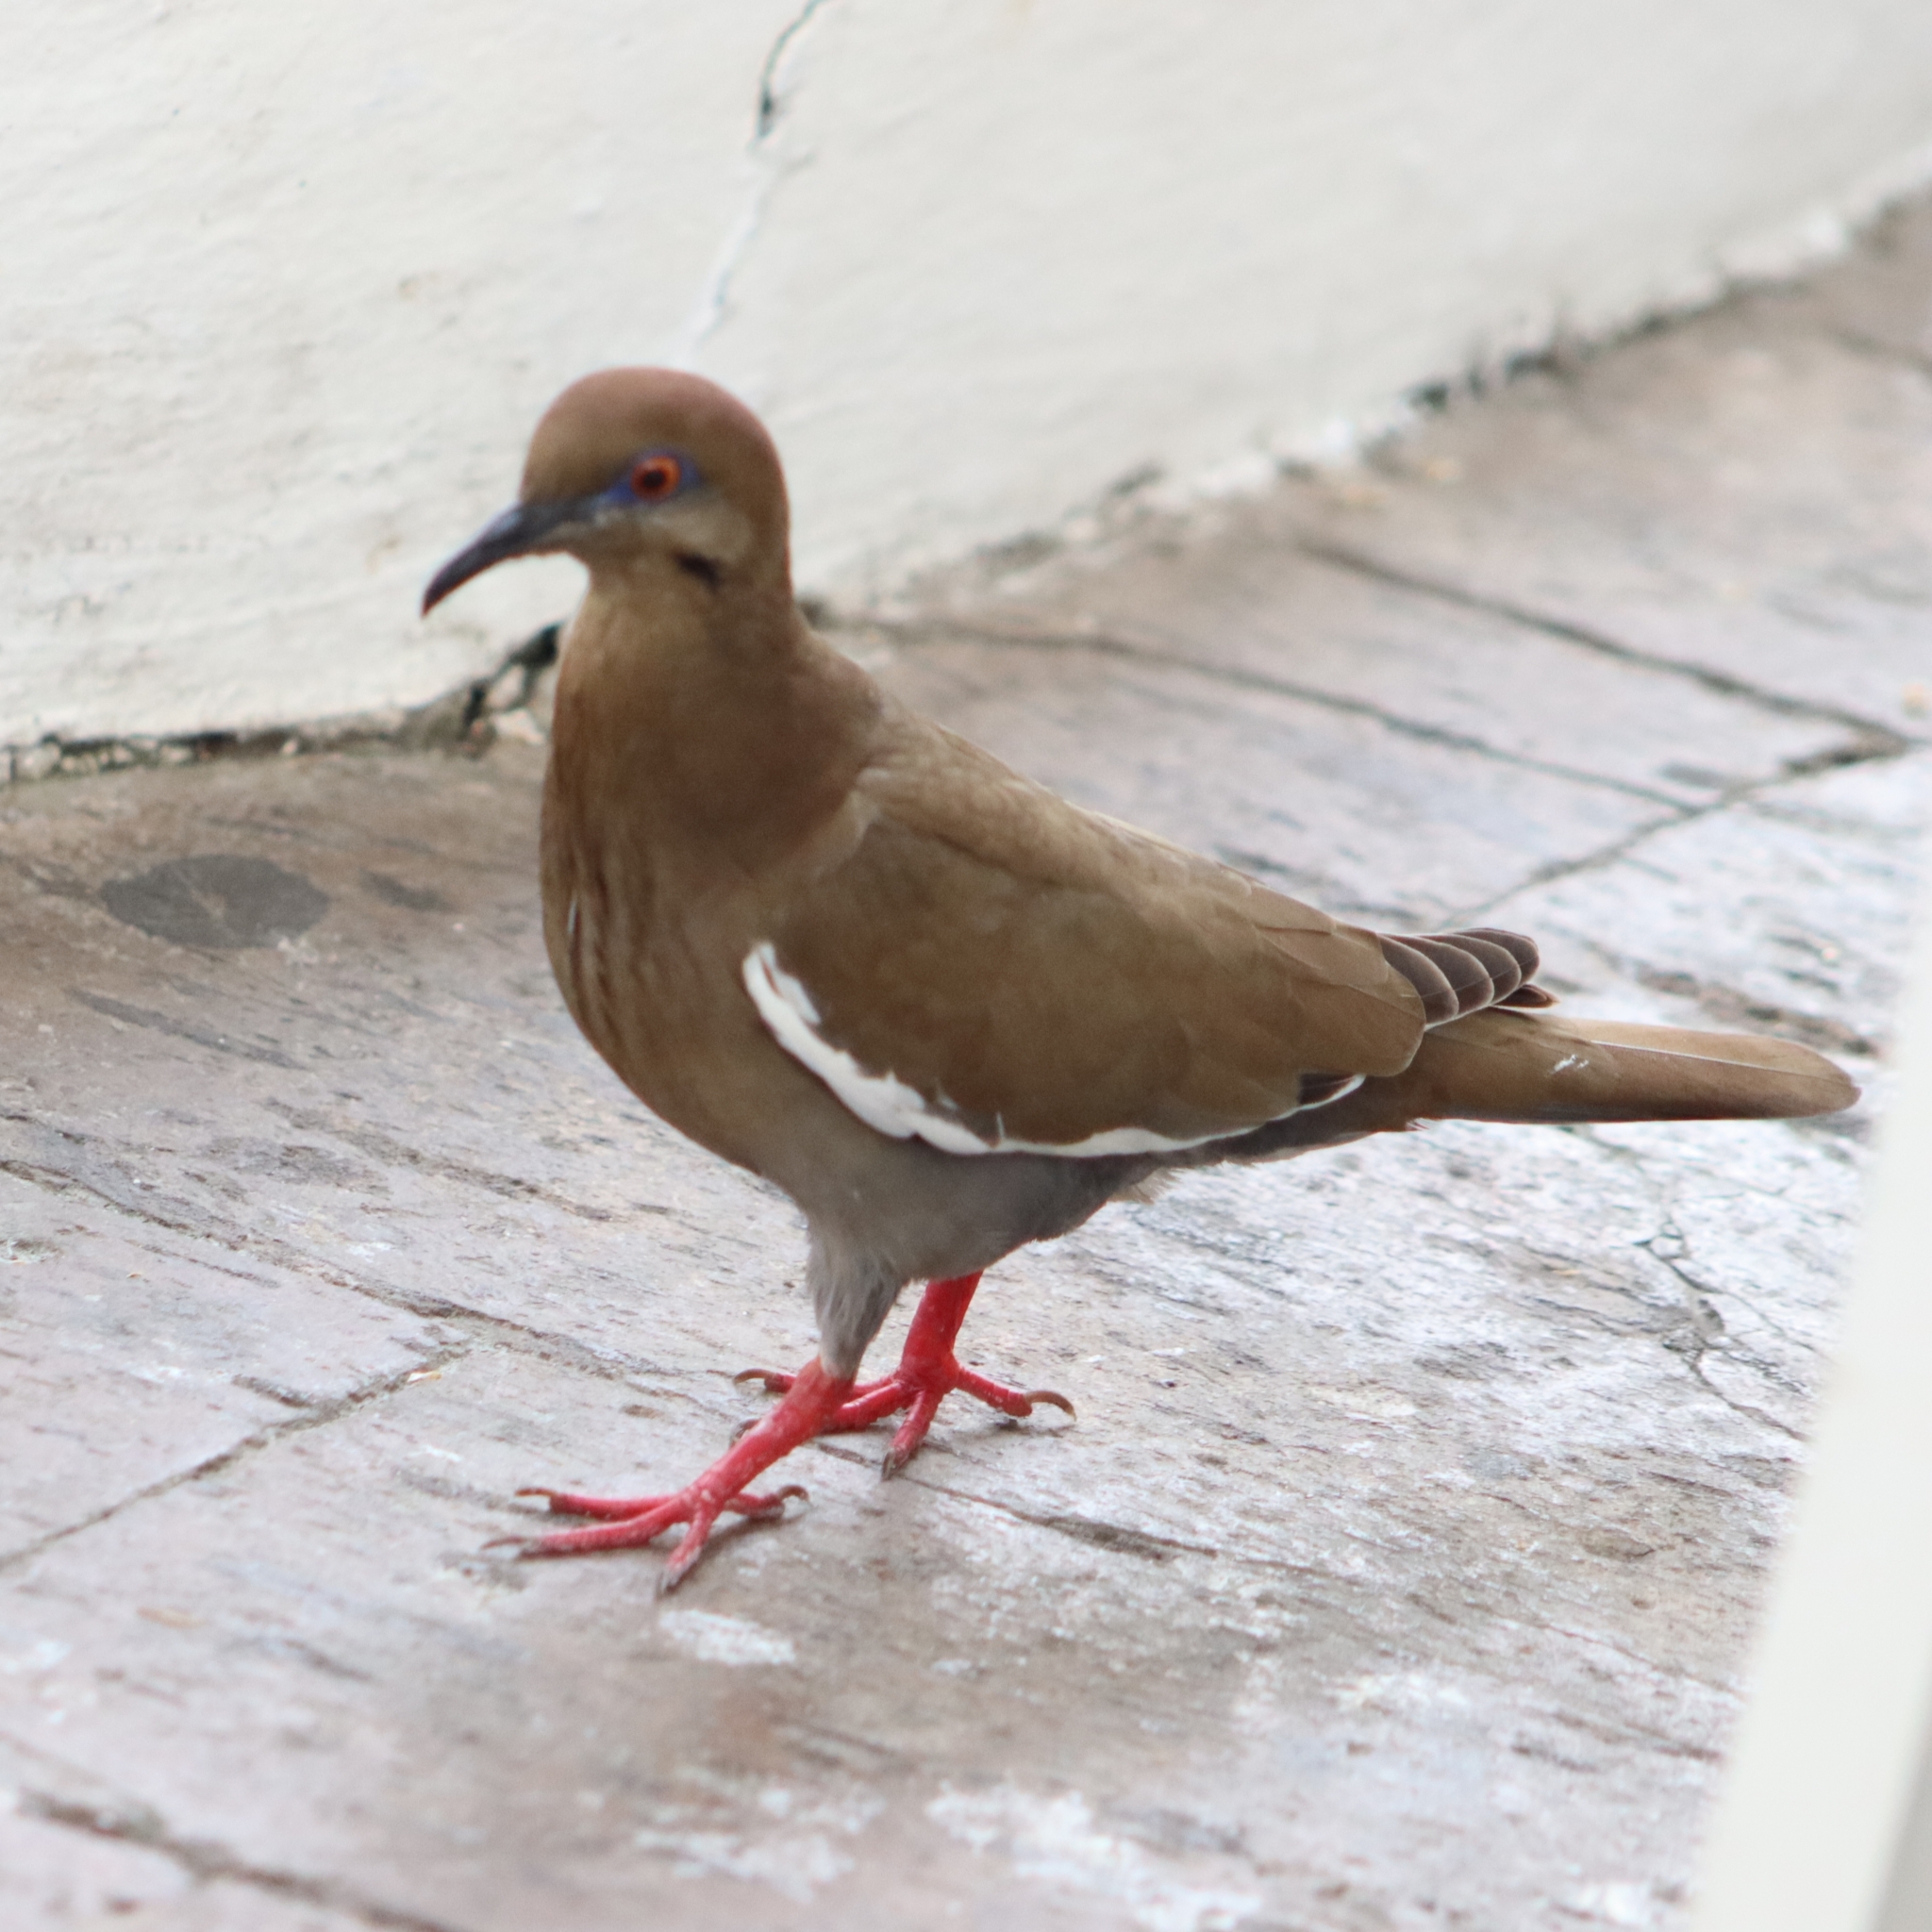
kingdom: Animalia
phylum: Chordata
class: Aves
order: Columbiformes
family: Columbidae
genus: Zenaida
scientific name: Zenaida asiatica
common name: White-winged dove
